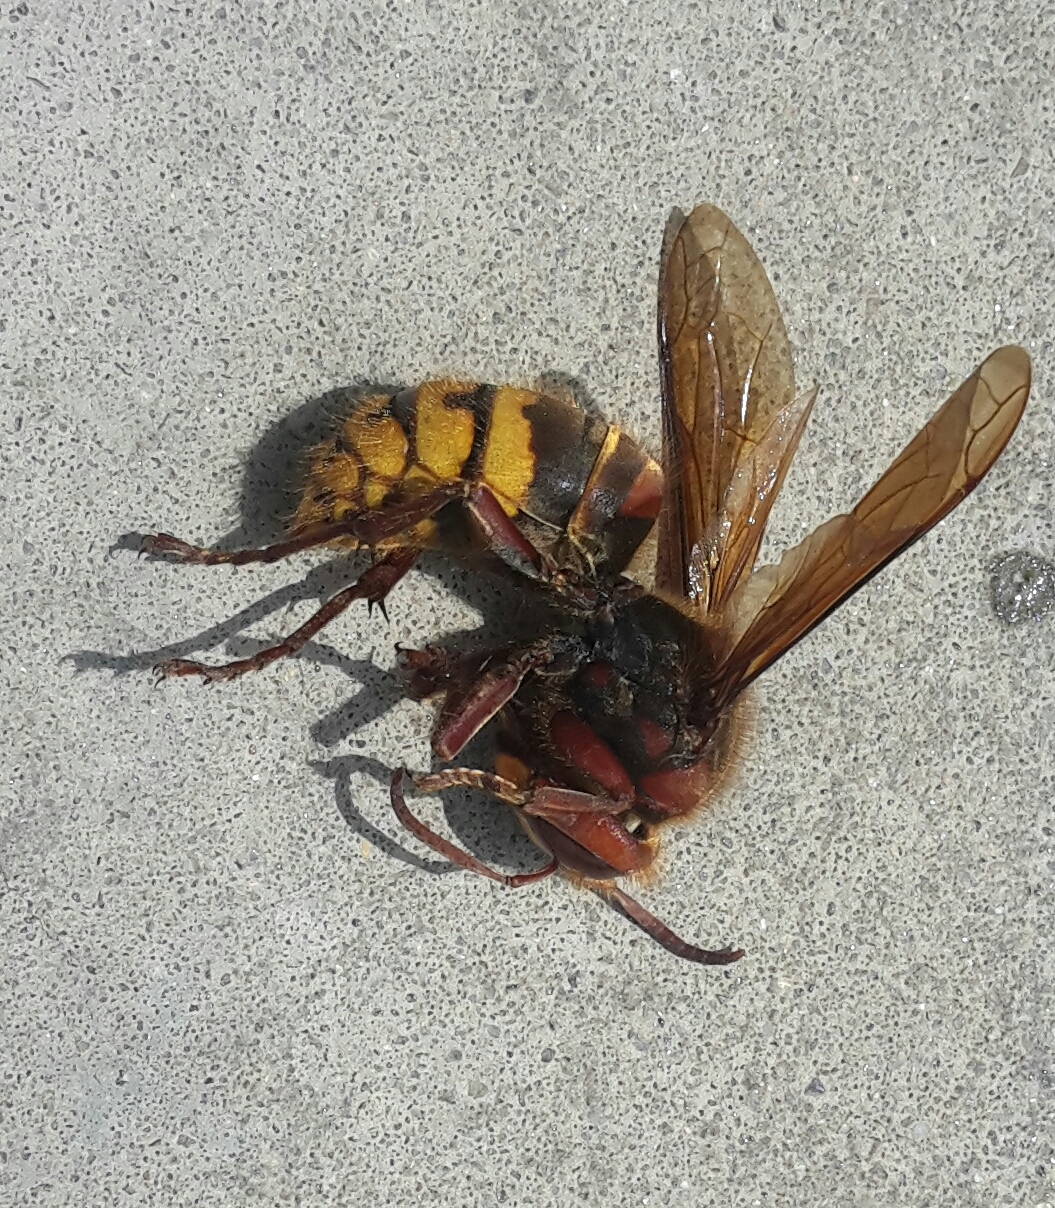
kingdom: Animalia
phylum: Arthropoda
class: Insecta
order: Hymenoptera
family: Vespidae
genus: Vespa
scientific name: Vespa crabro
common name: Hornet
